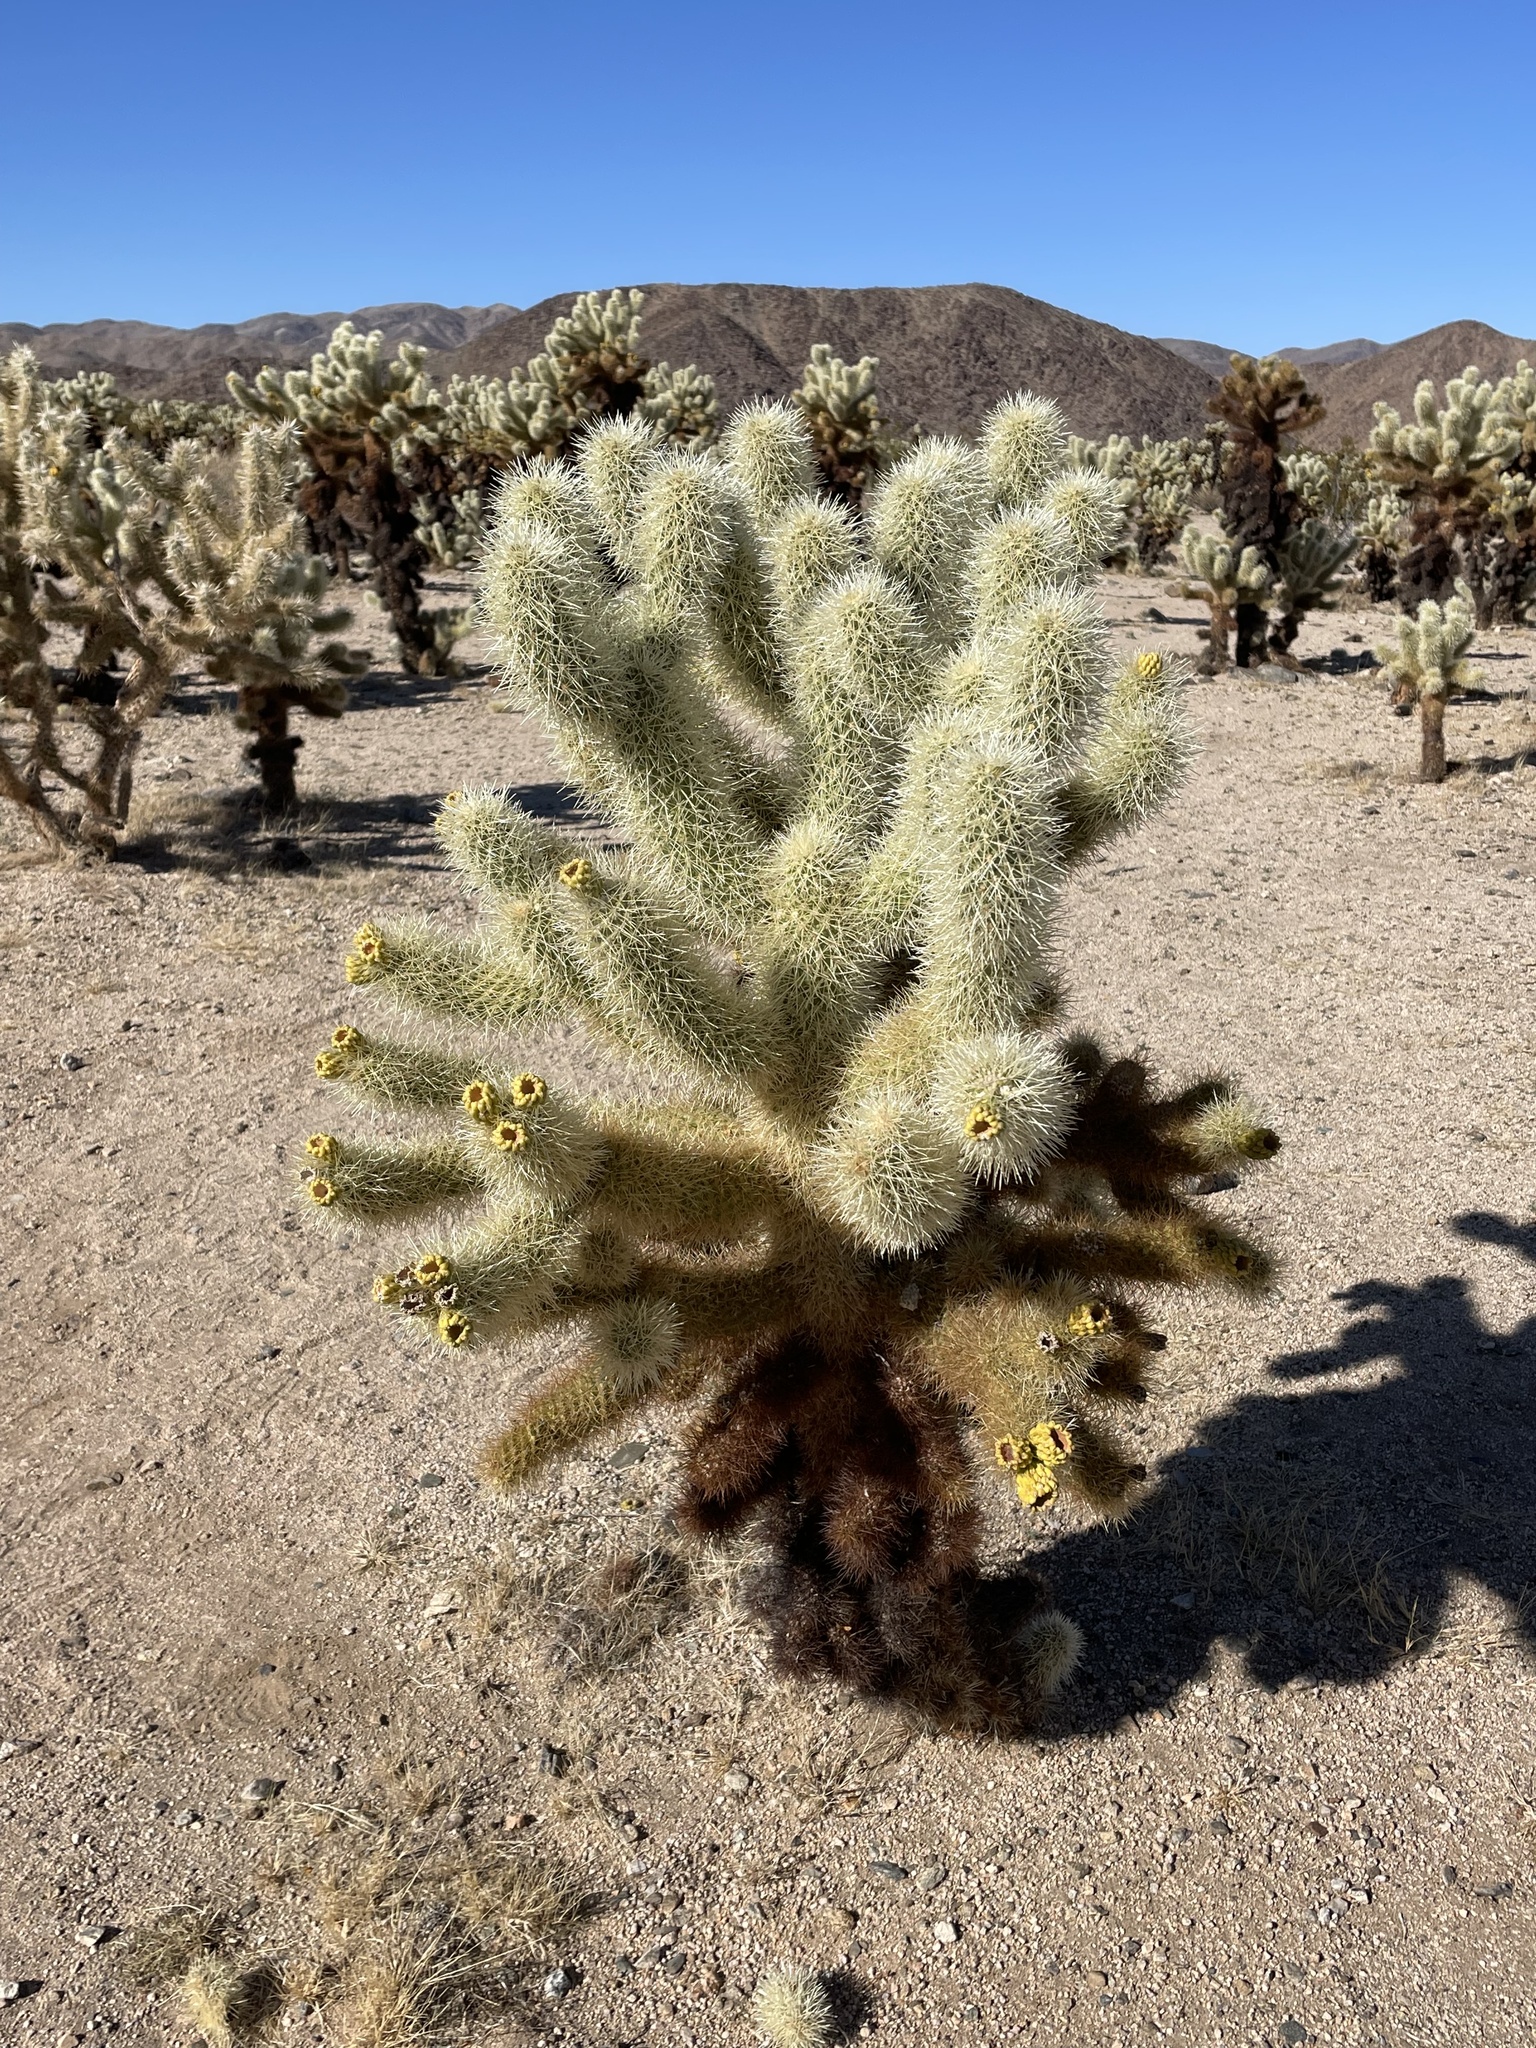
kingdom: Plantae
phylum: Tracheophyta
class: Magnoliopsida
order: Caryophyllales
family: Cactaceae
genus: Cylindropuntia
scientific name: Cylindropuntia fosbergii
